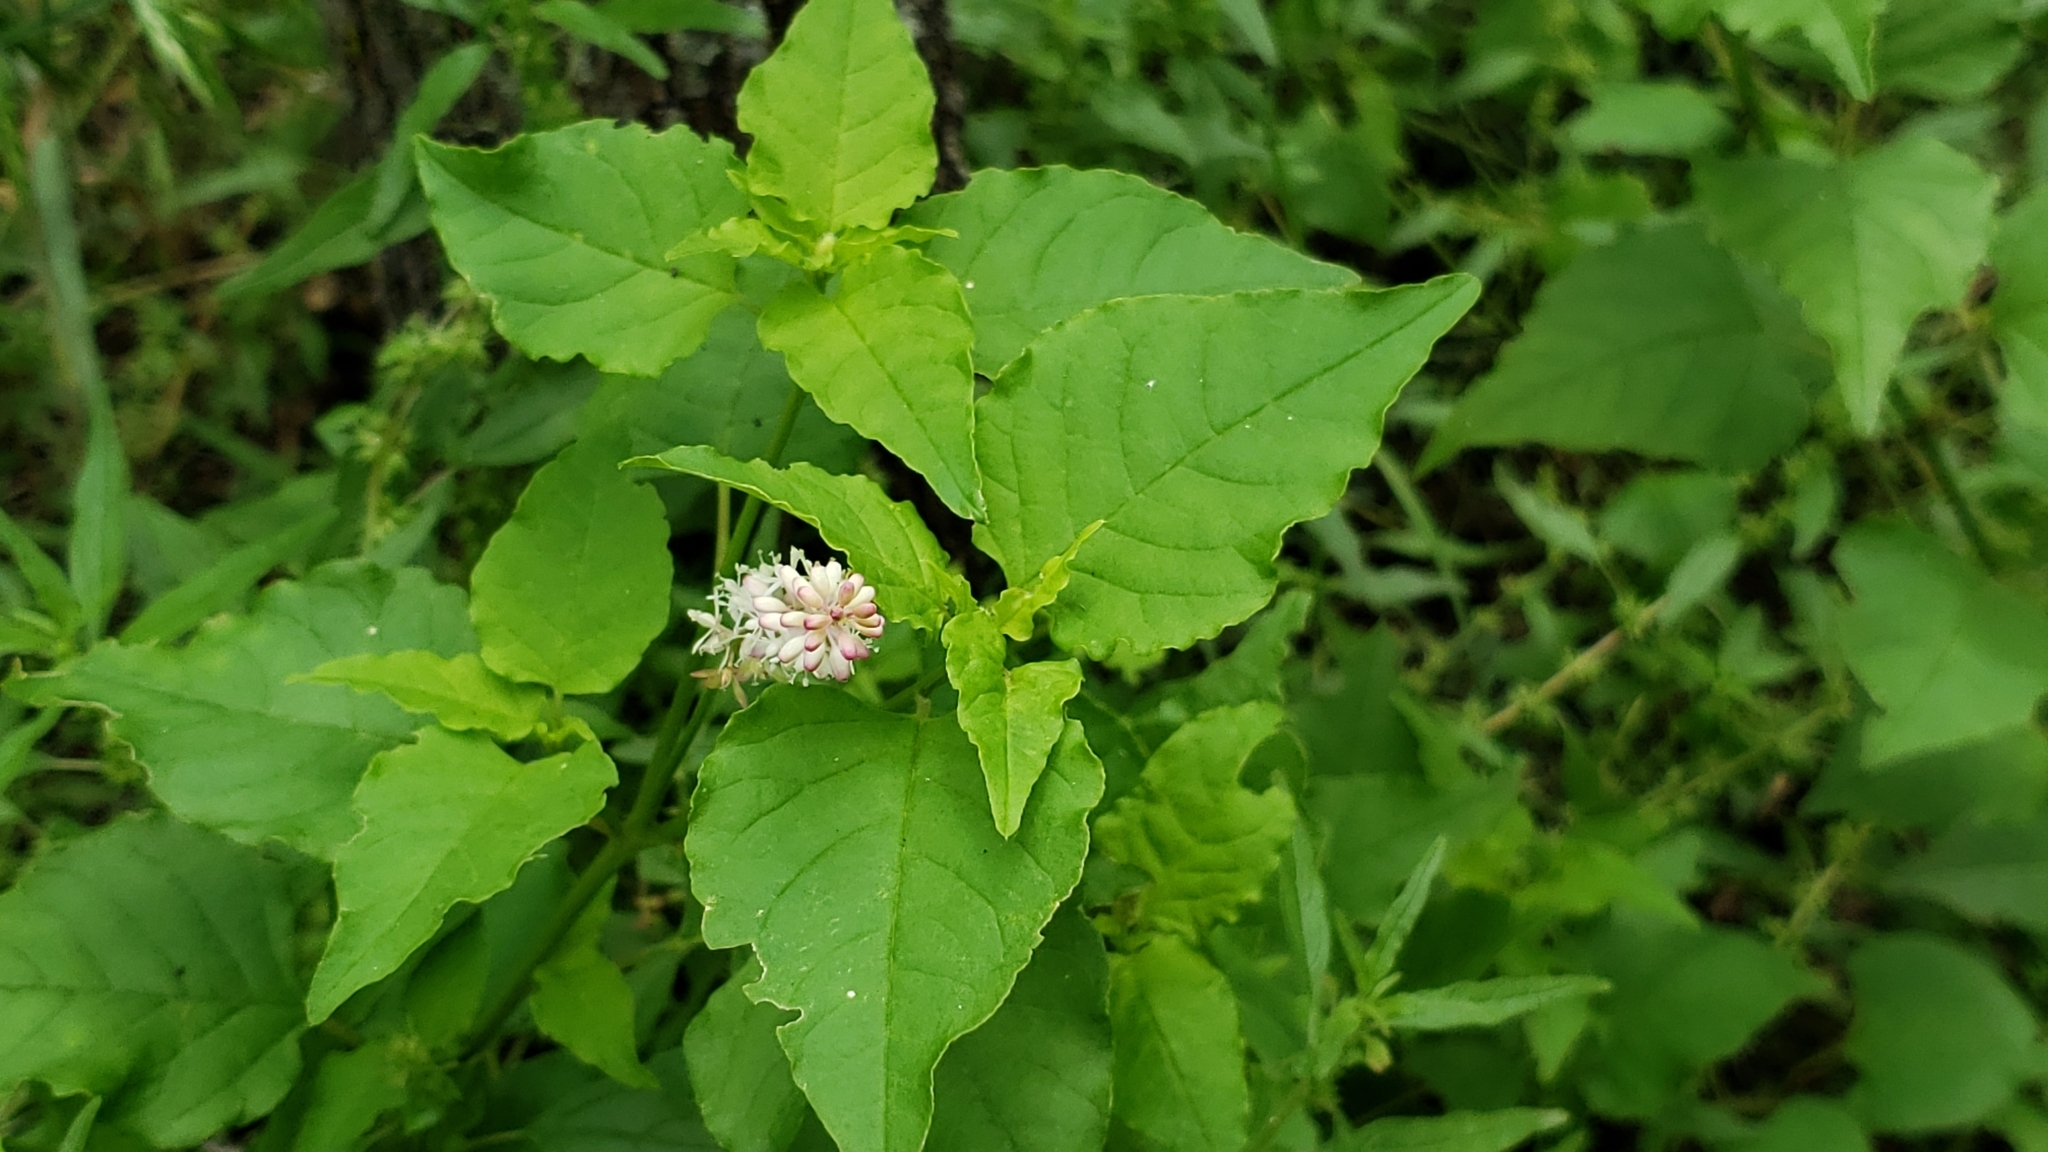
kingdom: Plantae
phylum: Tracheophyta
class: Magnoliopsida
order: Caryophyllales
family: Phytolaccaceae
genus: Rivina
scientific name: Rivina humilis
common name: Rougeplant
